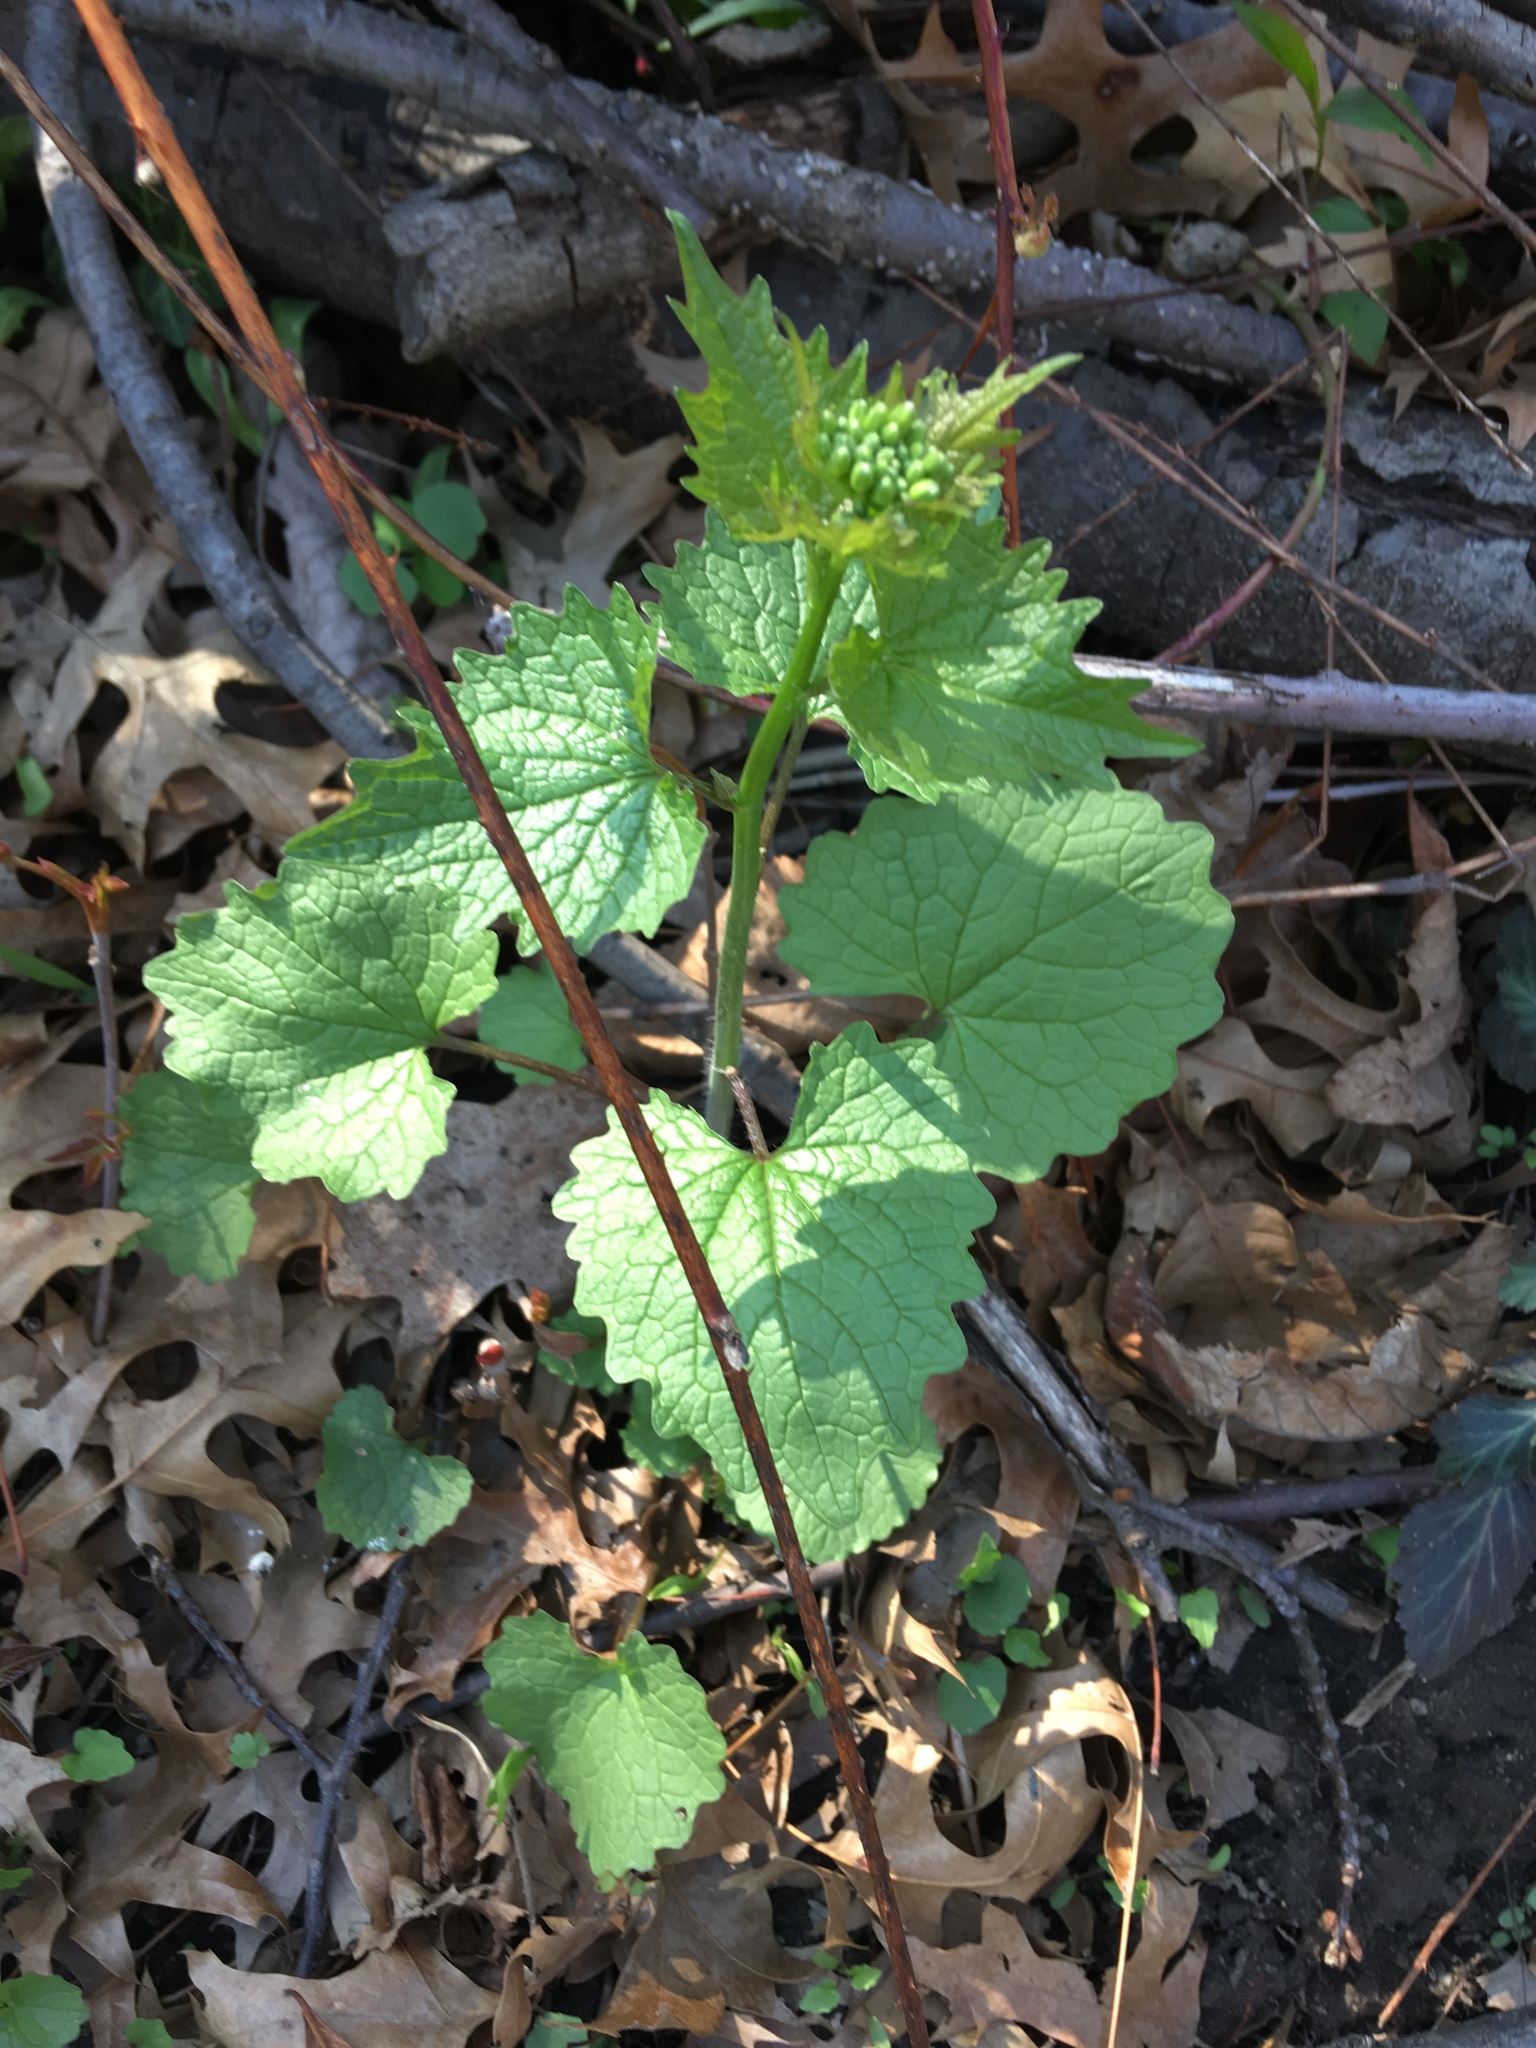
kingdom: Plantae
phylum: Tracheophyta
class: Magnoliopsida
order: Brassicales
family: Brassicaceae
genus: Alliaria
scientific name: Alliaria petiolata
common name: Garlic mustard
